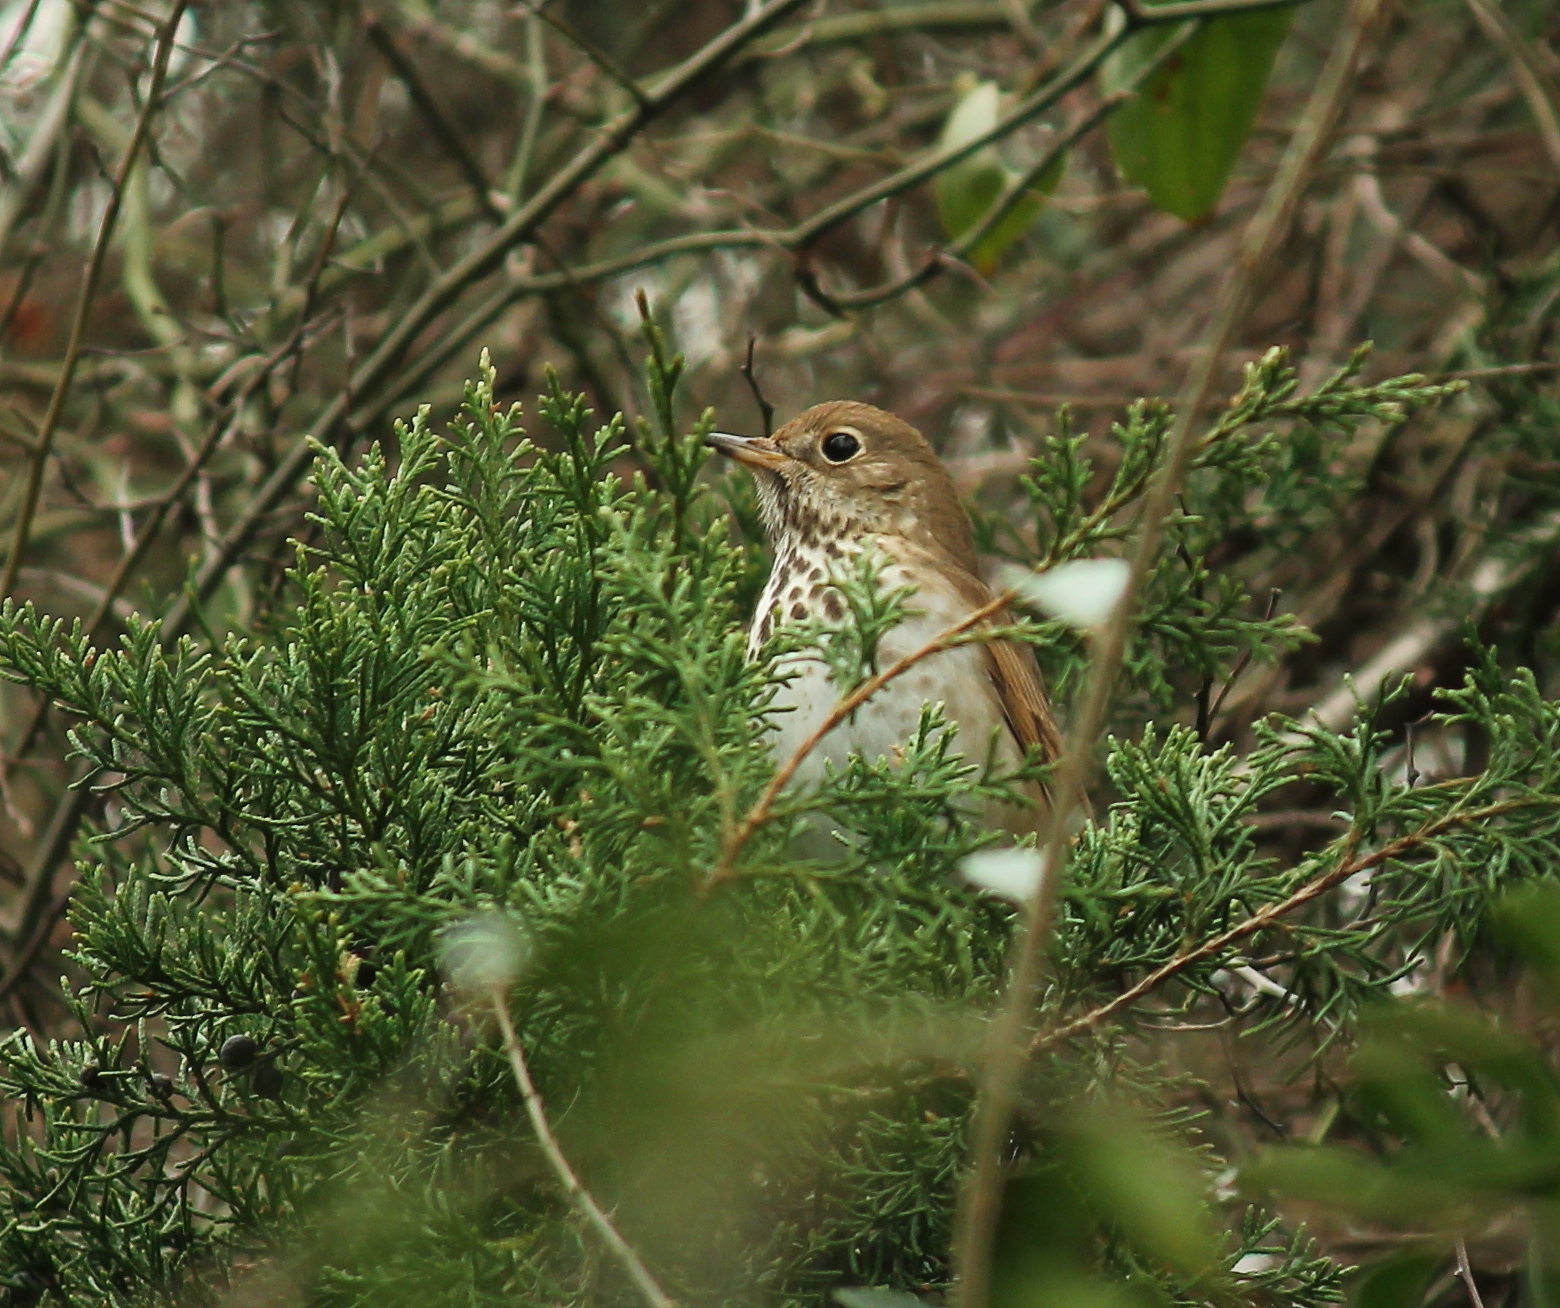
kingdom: Animalia
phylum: Chordata
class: Aves
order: Passeriformes
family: Turdidae
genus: Catharus
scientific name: Catharus guttatus
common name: Hermit thrush
